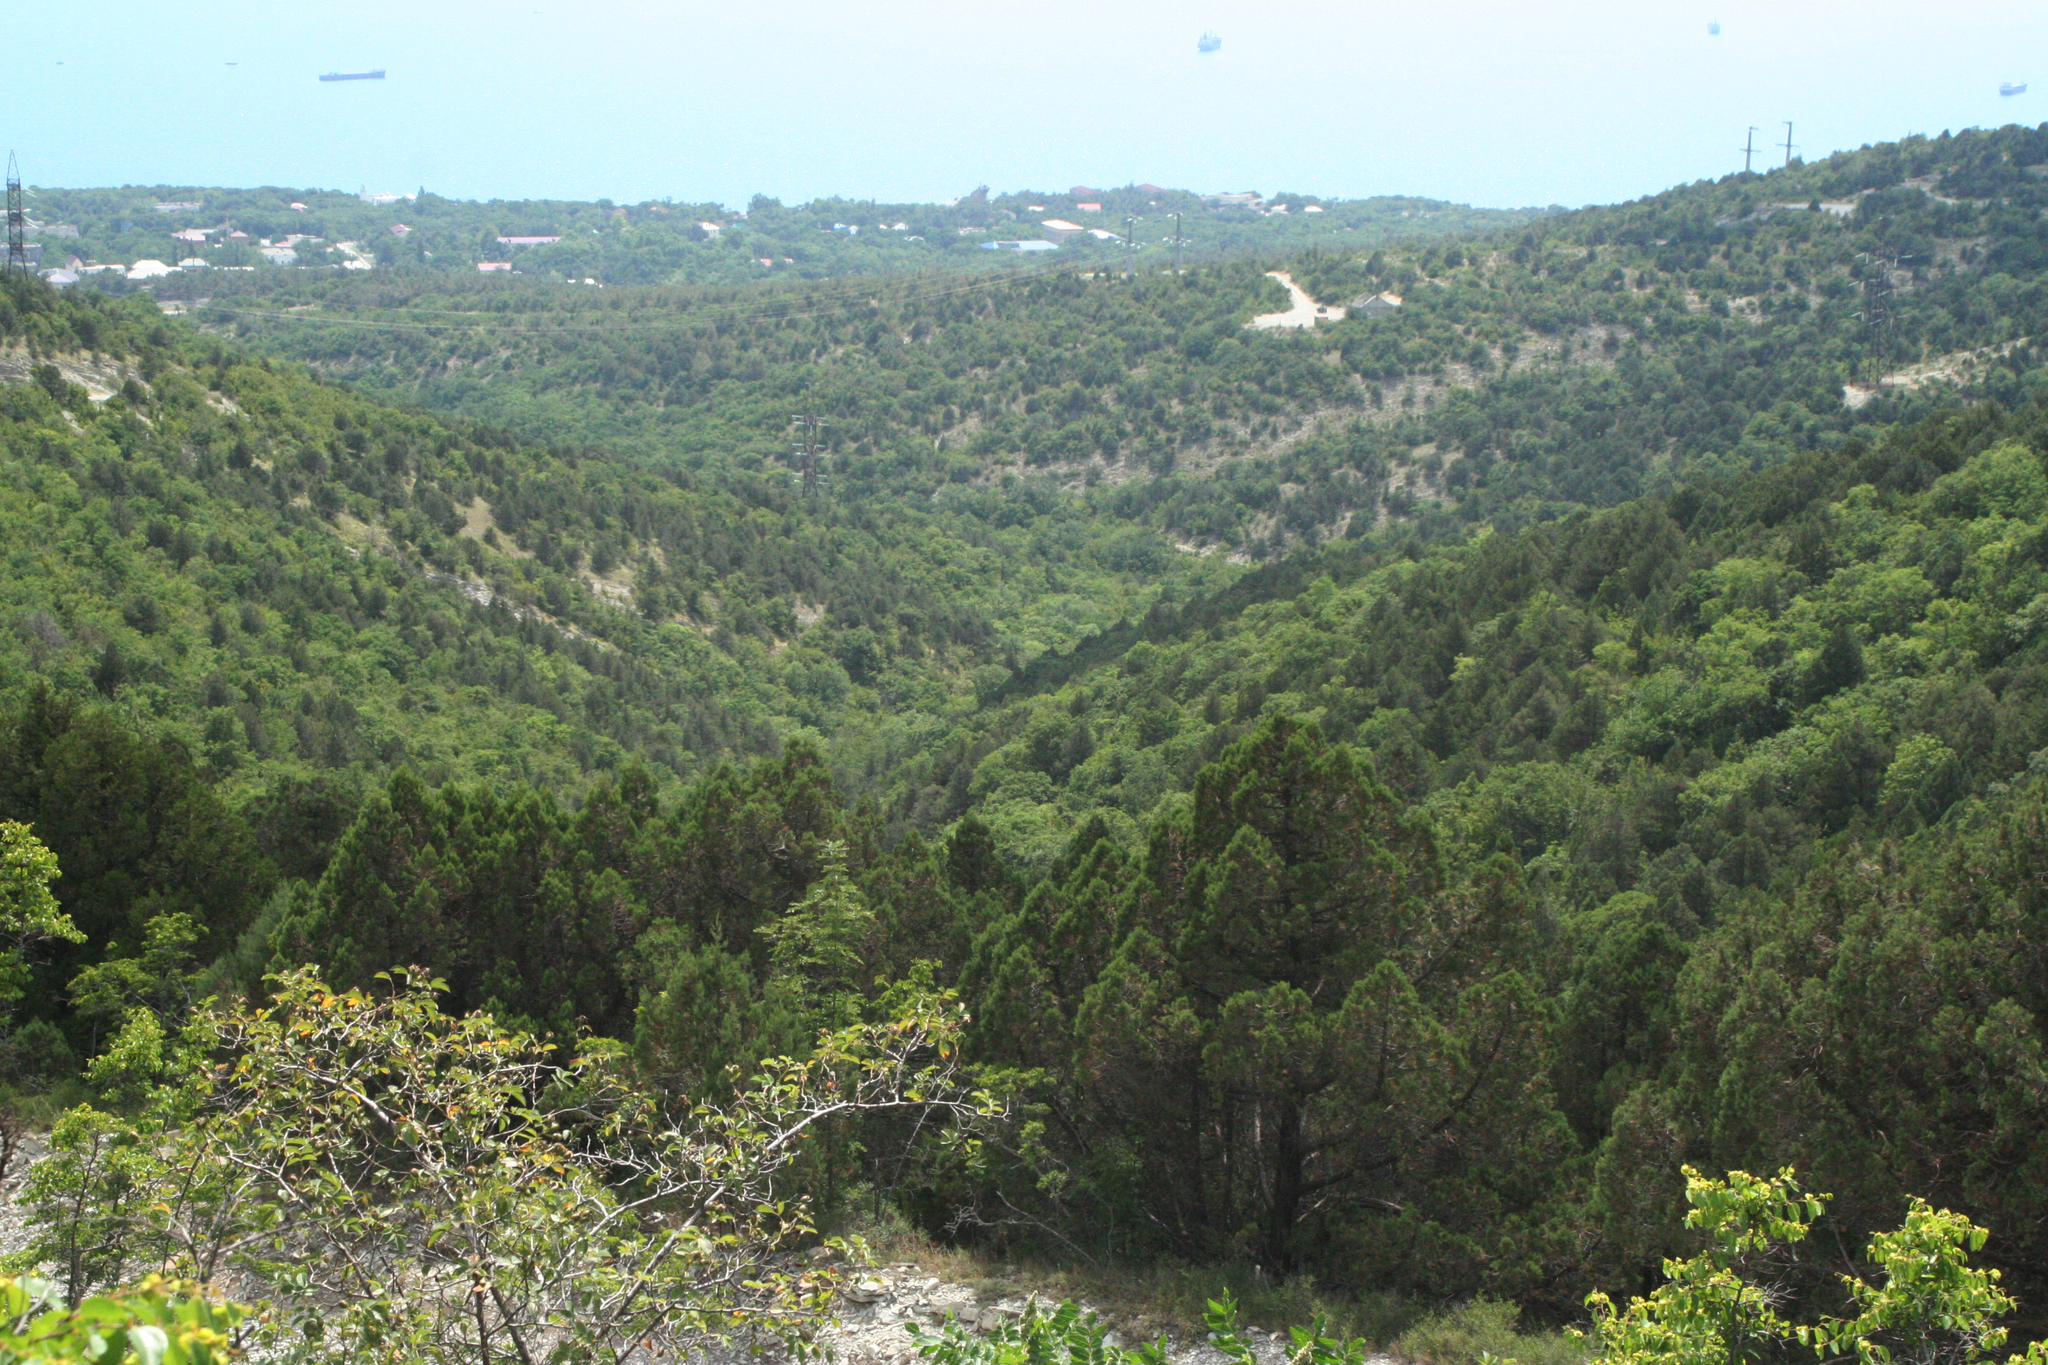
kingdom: Plantae
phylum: Tracheophyta
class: Magnoliopsida
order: Rosales
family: Rhamnaceae
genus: Paliurus
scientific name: Paliurus spina-christi
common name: Jeruselem thorn
